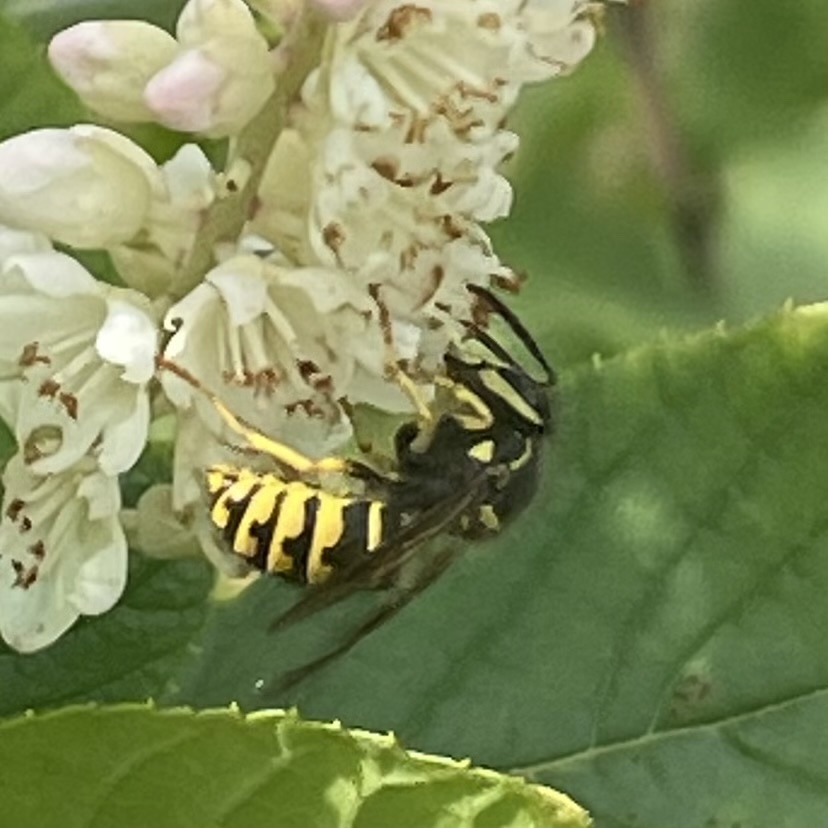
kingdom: Animalia
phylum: Arthropoda
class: Insecta
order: Hymenoptera
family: Vespidae
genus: Dolichovespula
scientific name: Dolichovespula arenaria
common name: Aerial yellowjacket
